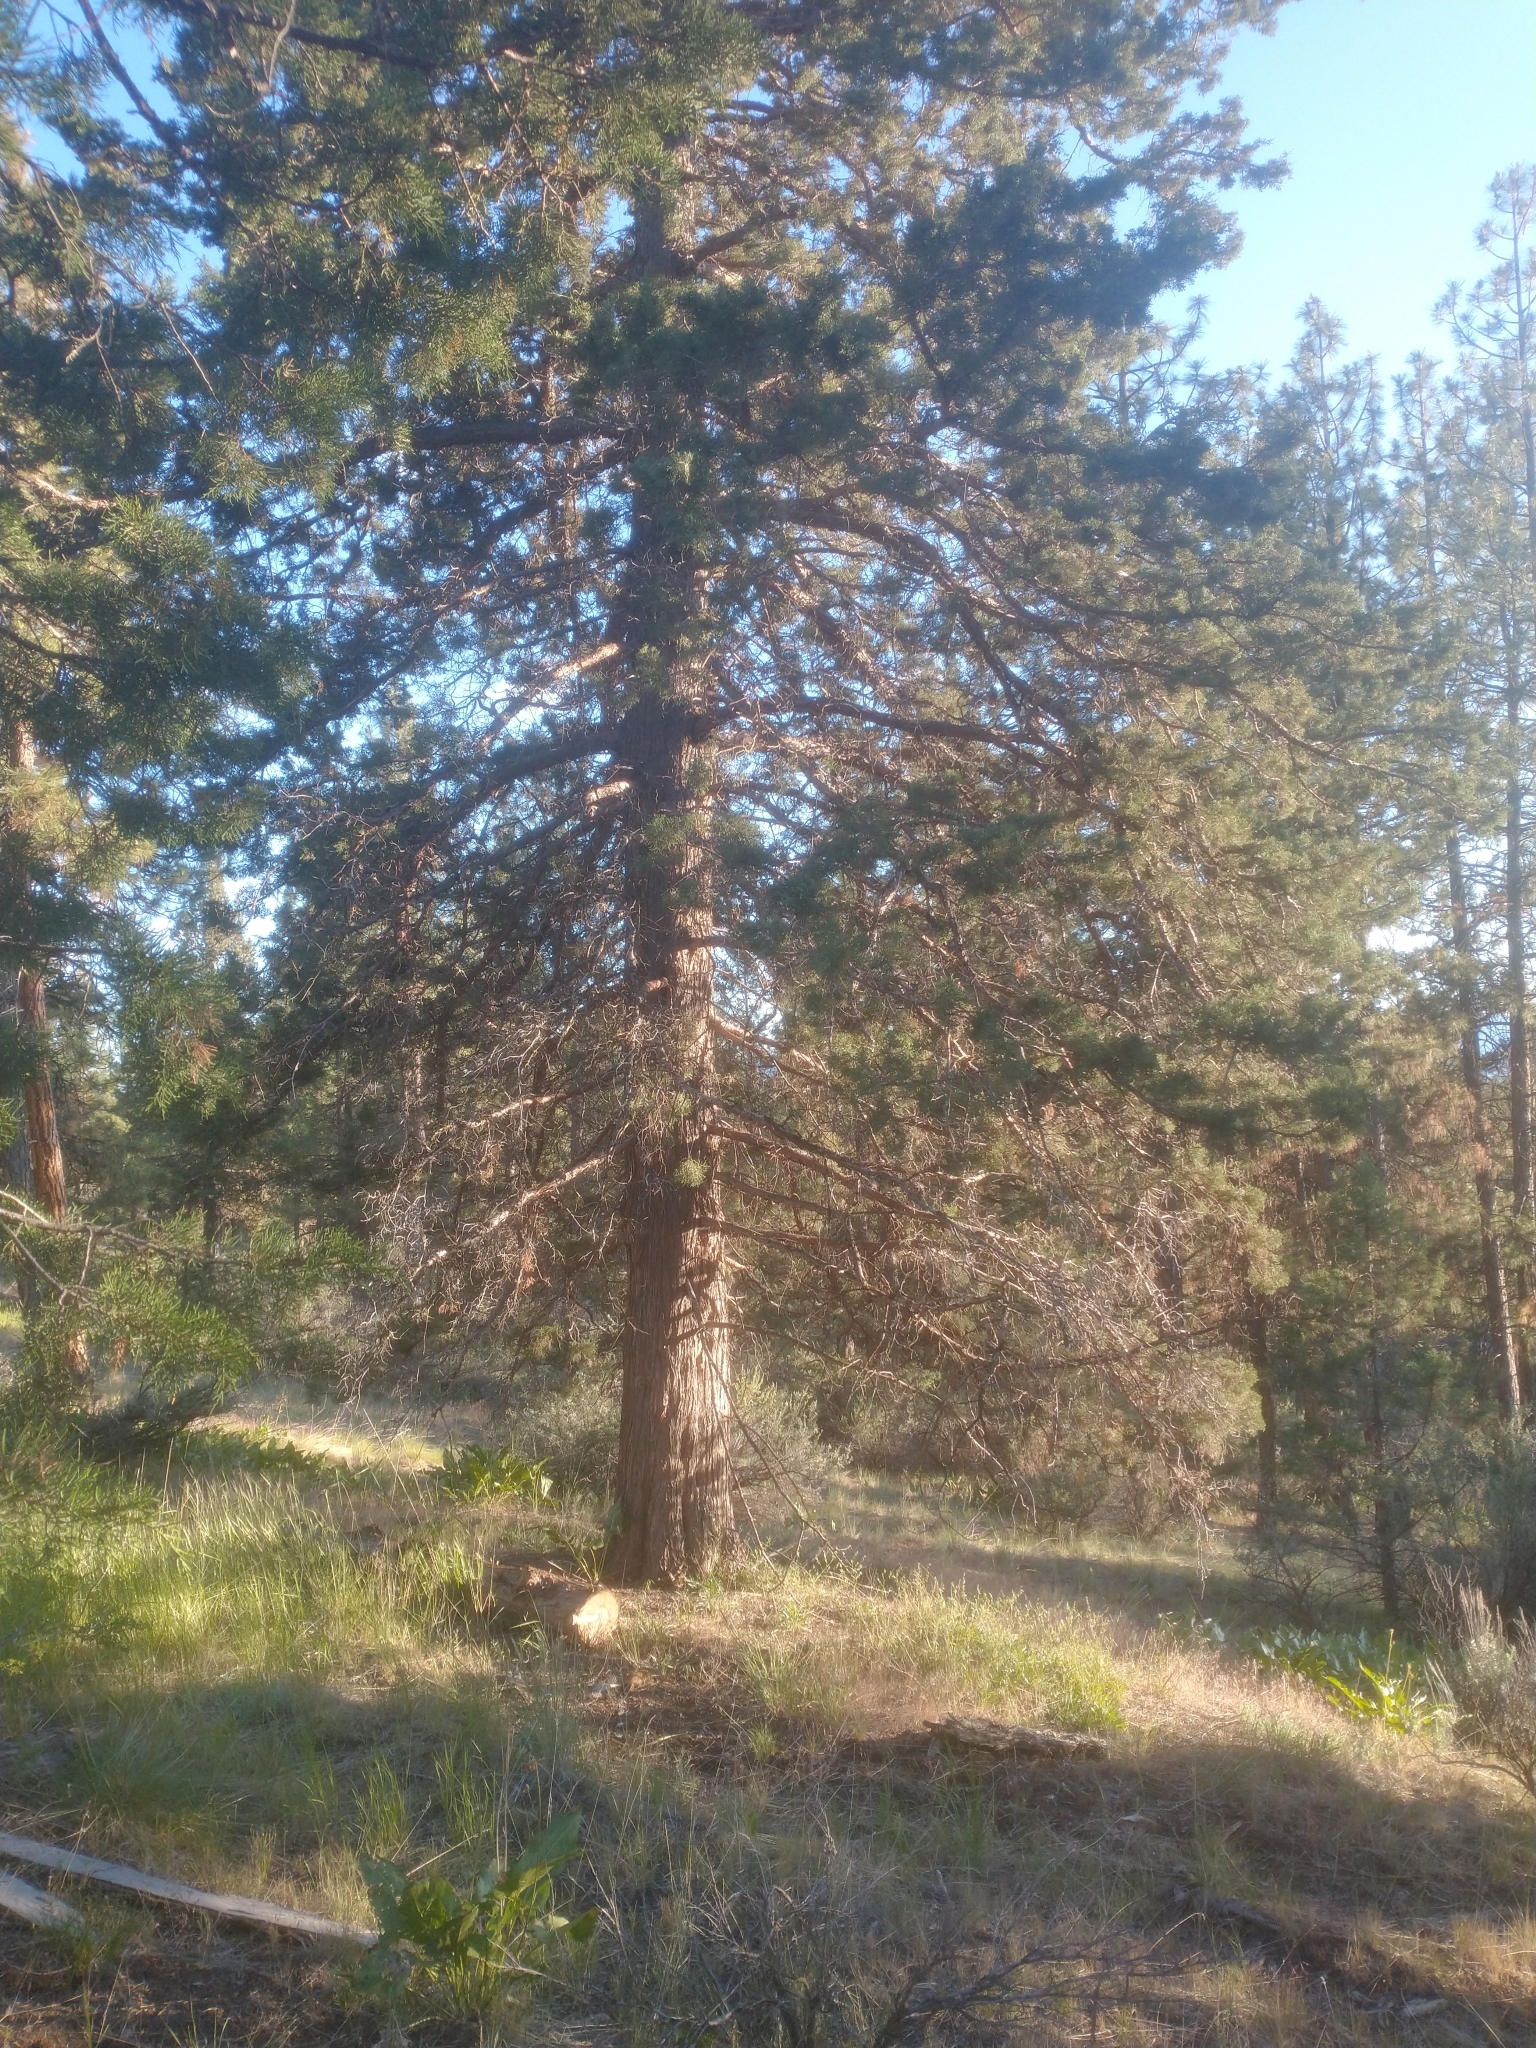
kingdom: Plantae
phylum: Tracheophyta
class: Pinopsida
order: Pinales
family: Cupressaceae
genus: Juniperus
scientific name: Juniperus occidentalis
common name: Western juniper
